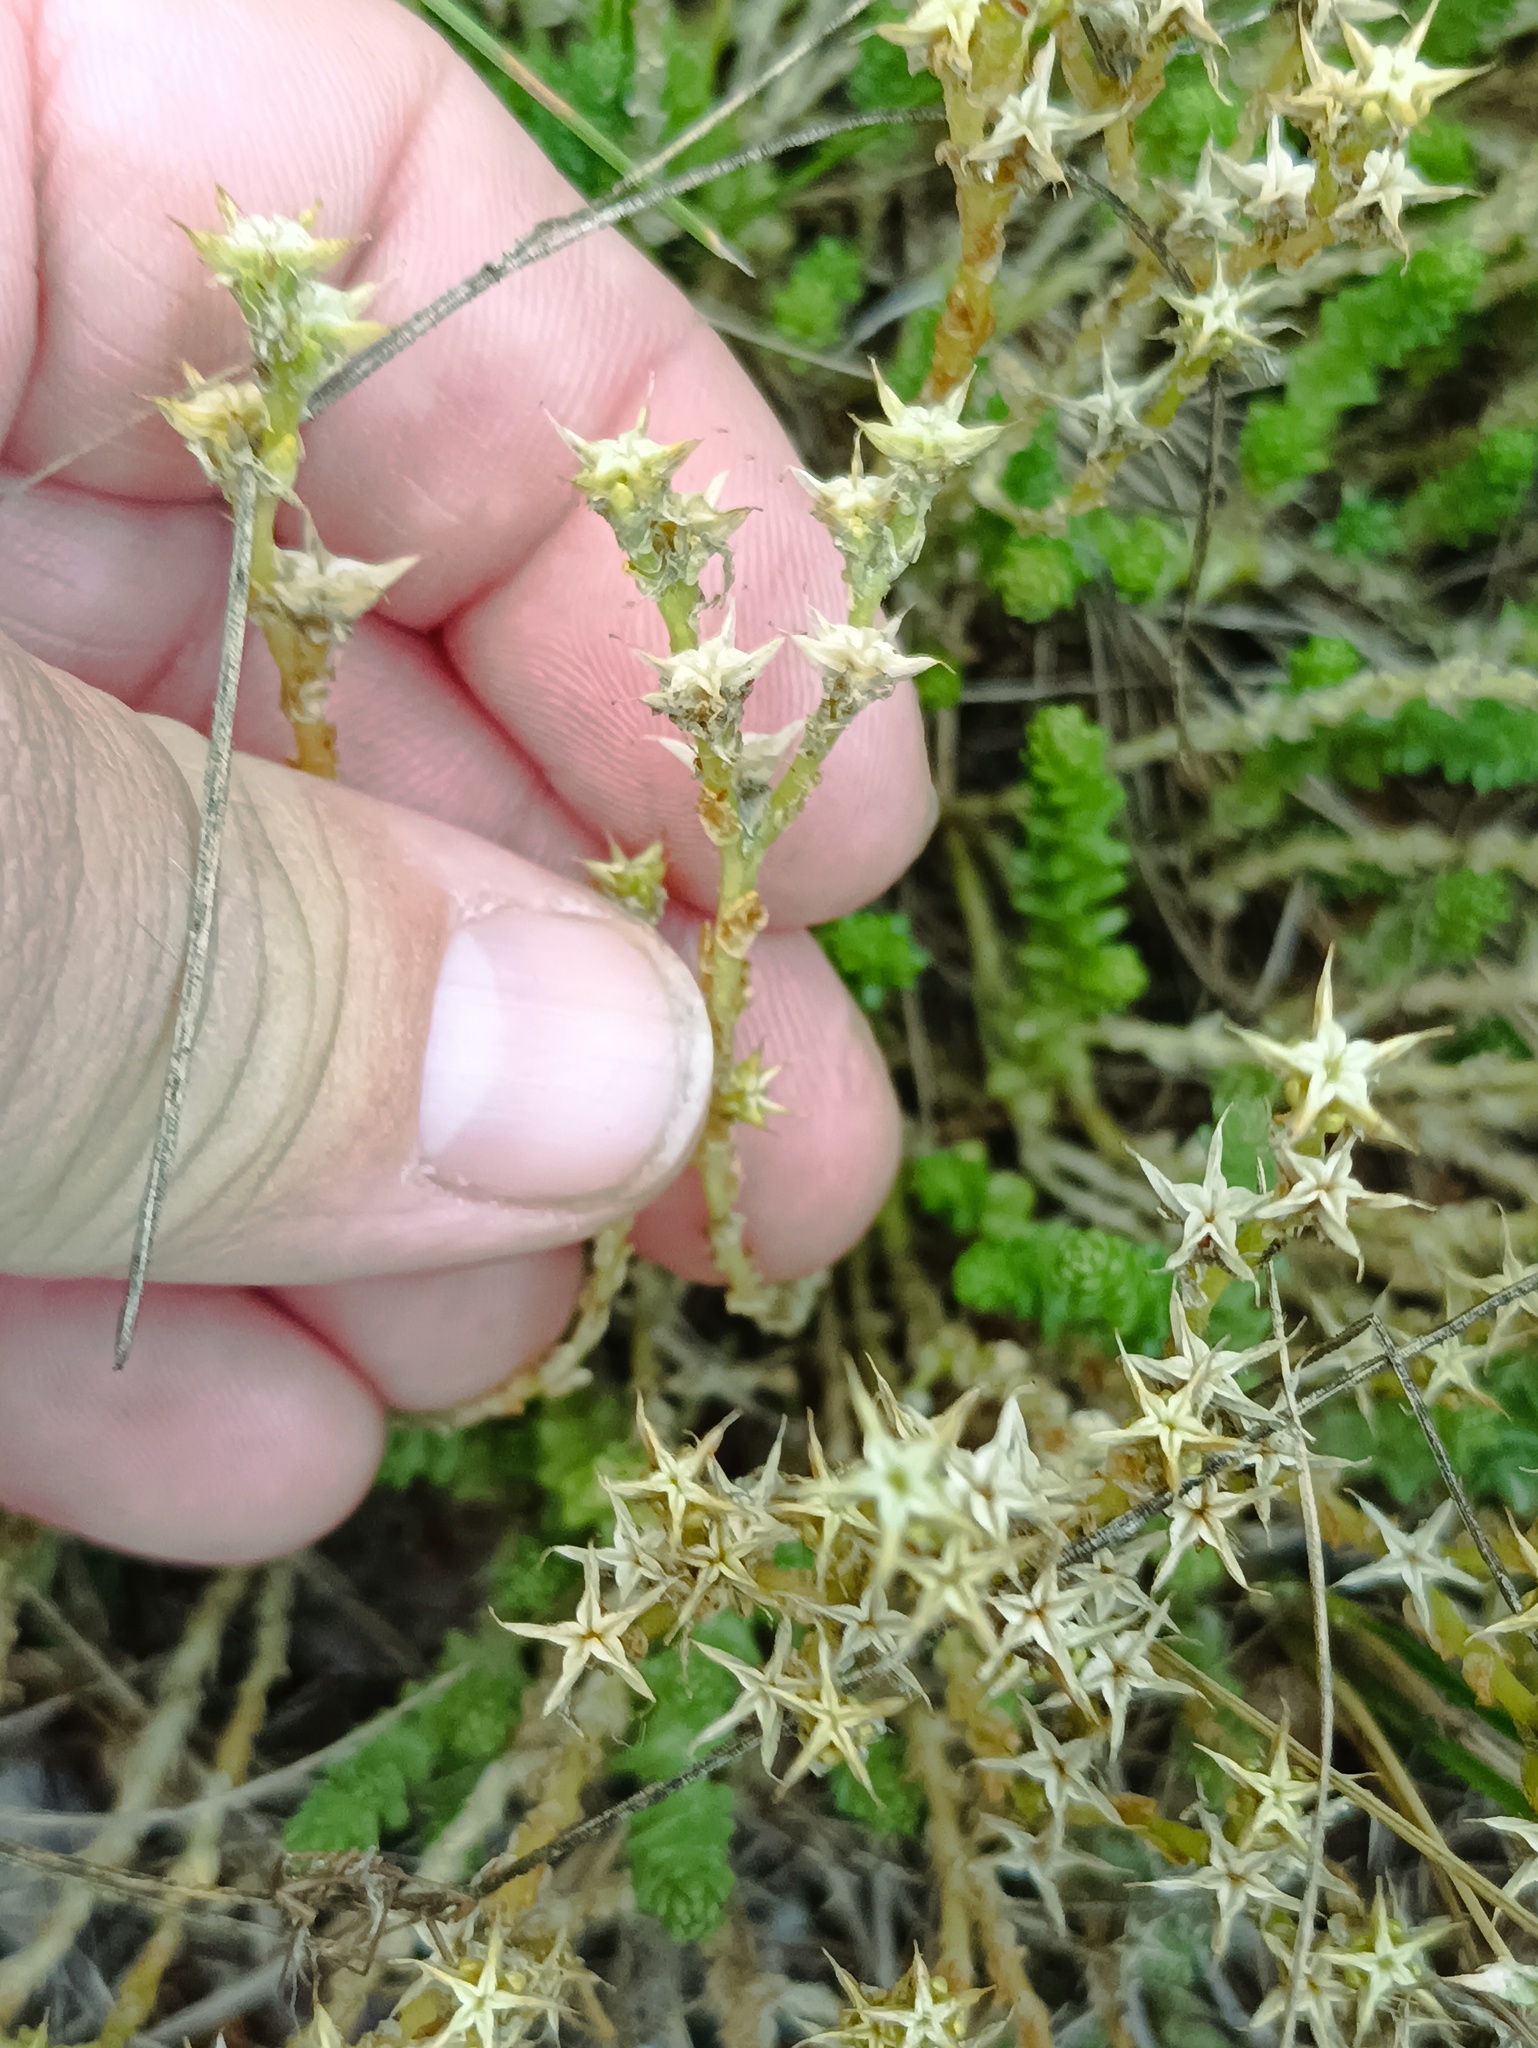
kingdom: Plantae
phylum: Tracheophyta
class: Magnoliopsida
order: Saxifragales
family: Crassulaceae
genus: Sedum
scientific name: Sedum acre
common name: Biting stonecrop
